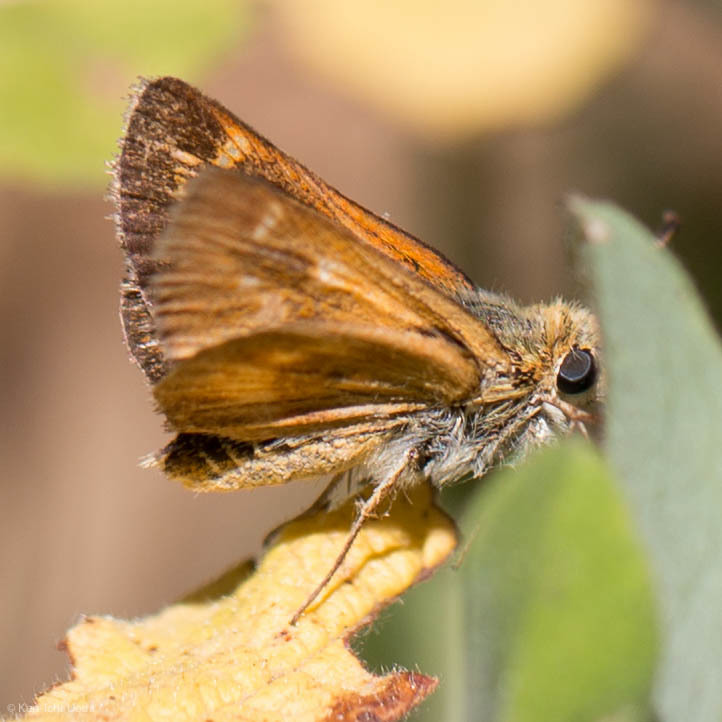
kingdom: Animalia
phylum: Arthropoda
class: Insecta
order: Lepidoptera
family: Hesperiidae
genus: Ochlodes
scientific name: Ochlodes agricola
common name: Rural skipper
